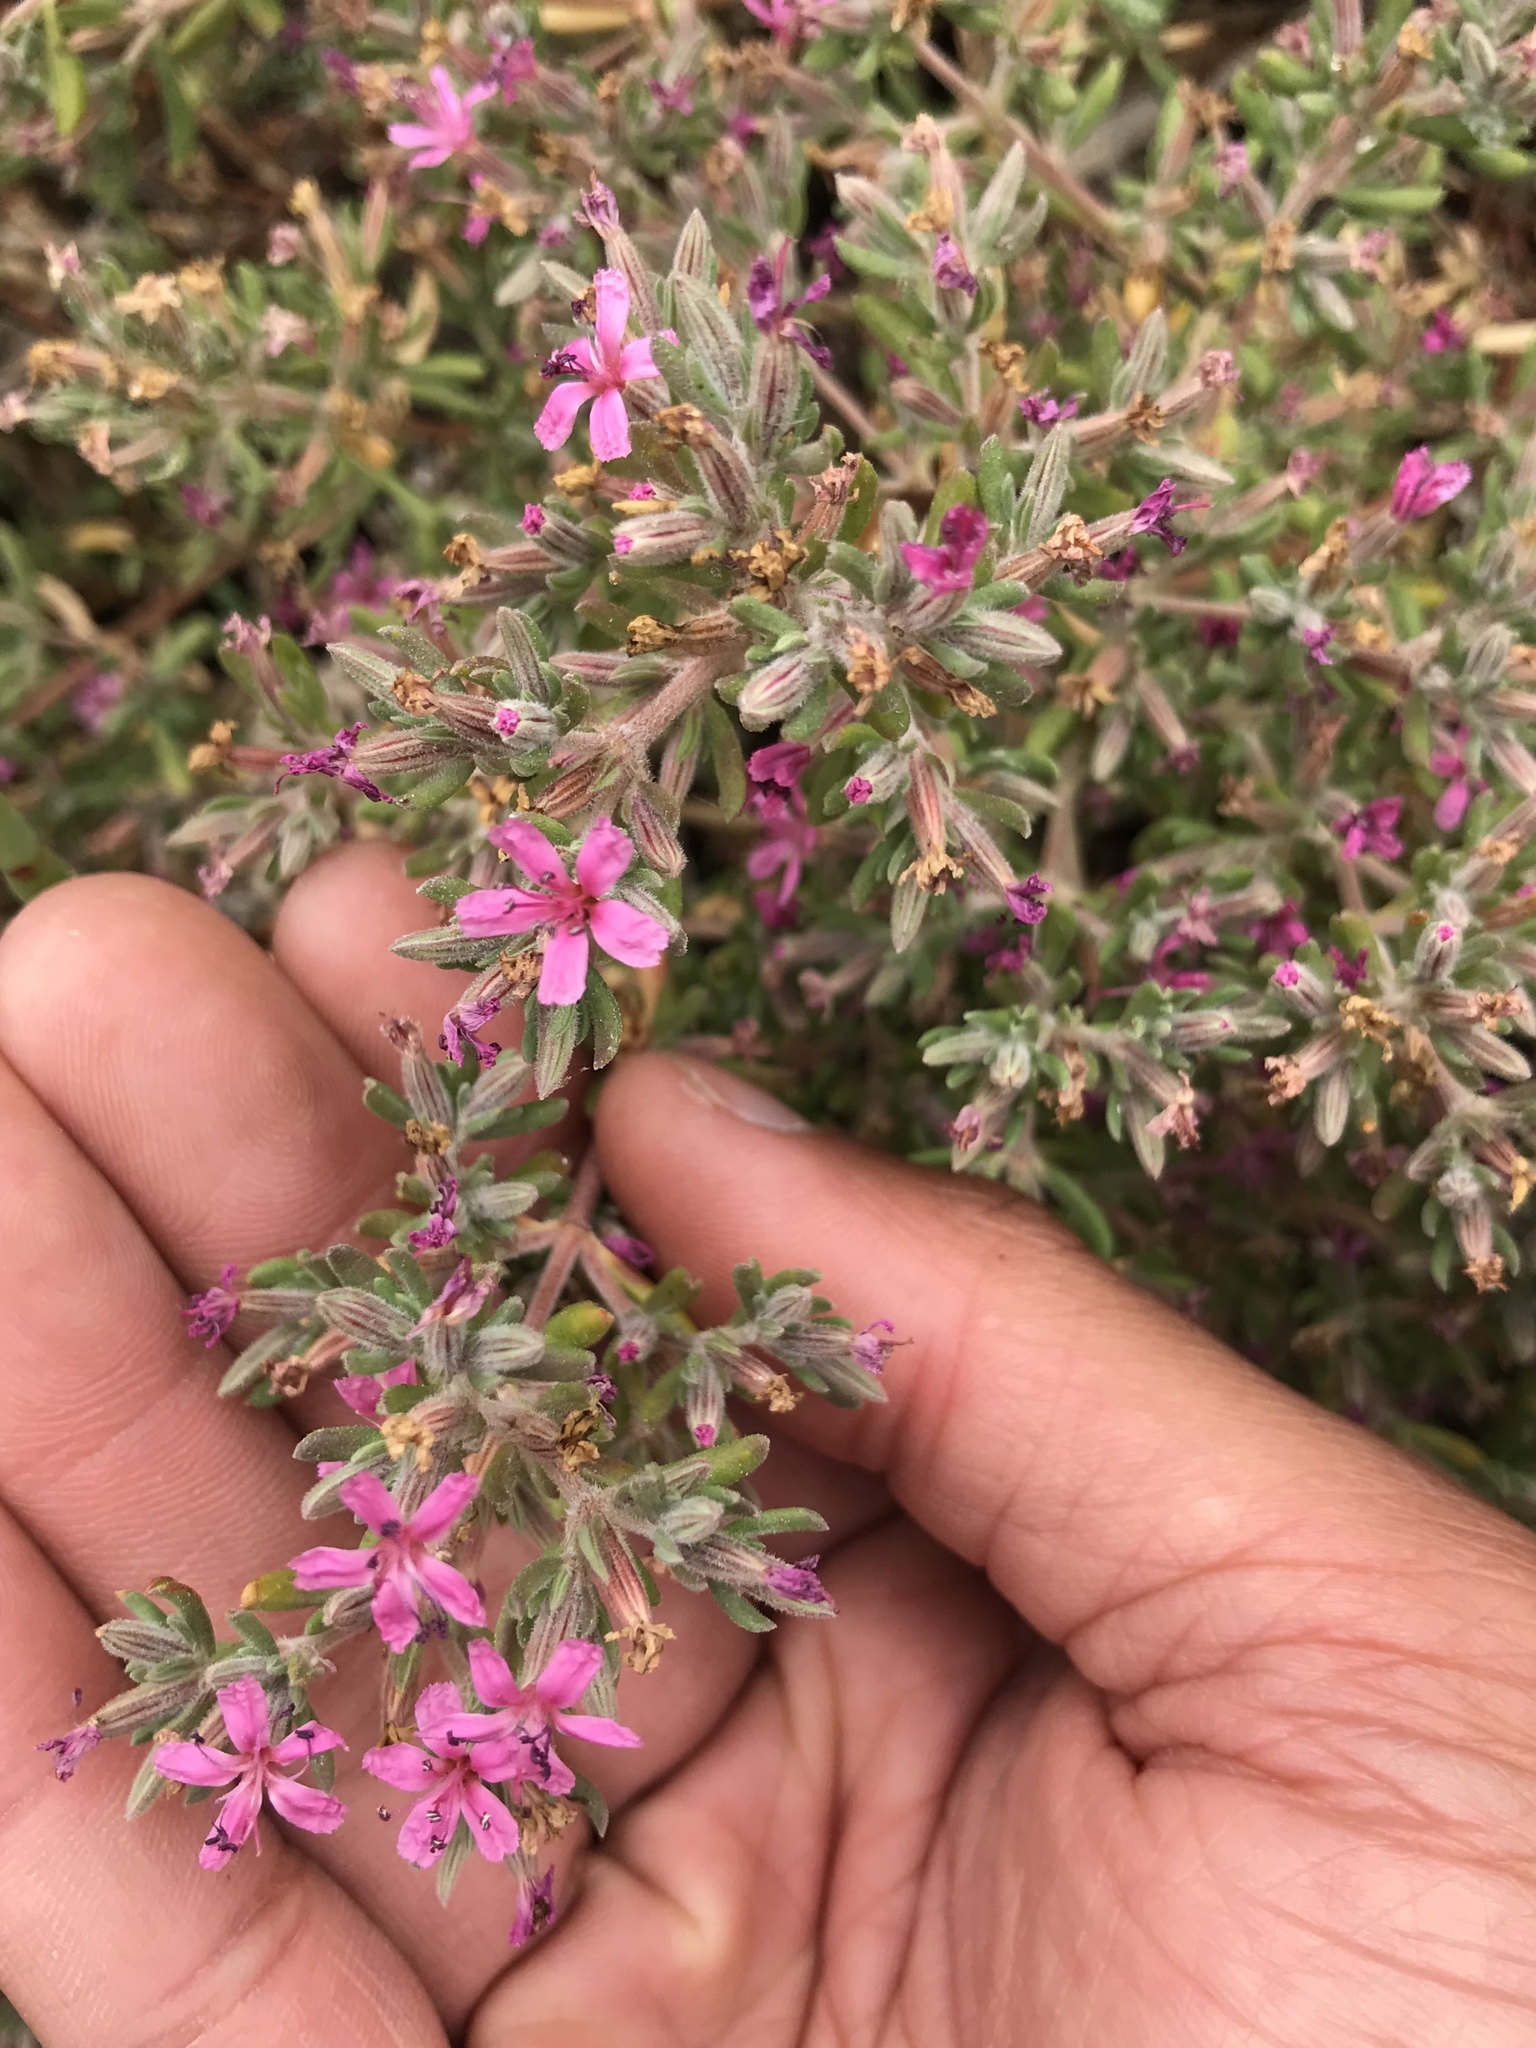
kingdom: Plantae
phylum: Tracheophyta
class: Magnoliopsida
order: Caryophyllales
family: Frankeniaceae
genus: Frankenia
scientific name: Frankenia salina
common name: Alkali seaheath
